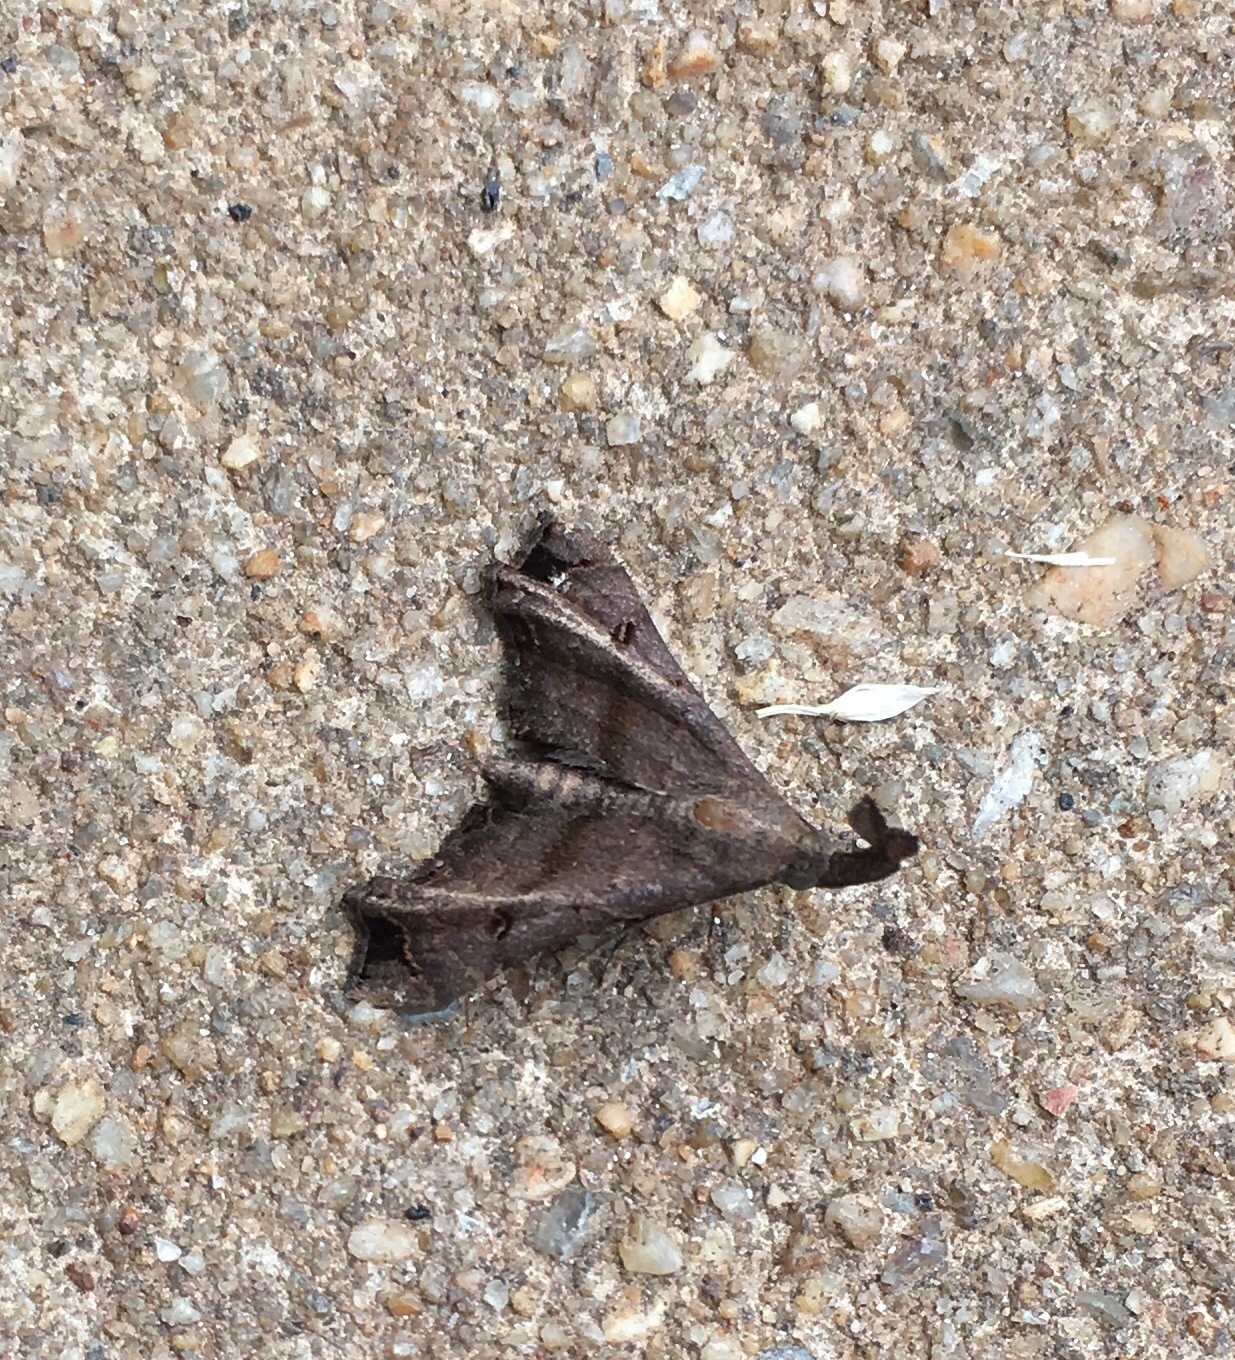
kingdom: Animalia
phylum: Arthropoda
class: Insecta
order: Lepidoptera
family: Erebidae
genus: Palthis
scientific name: Palthis asopialis
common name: Faint-spotted palthis moth
